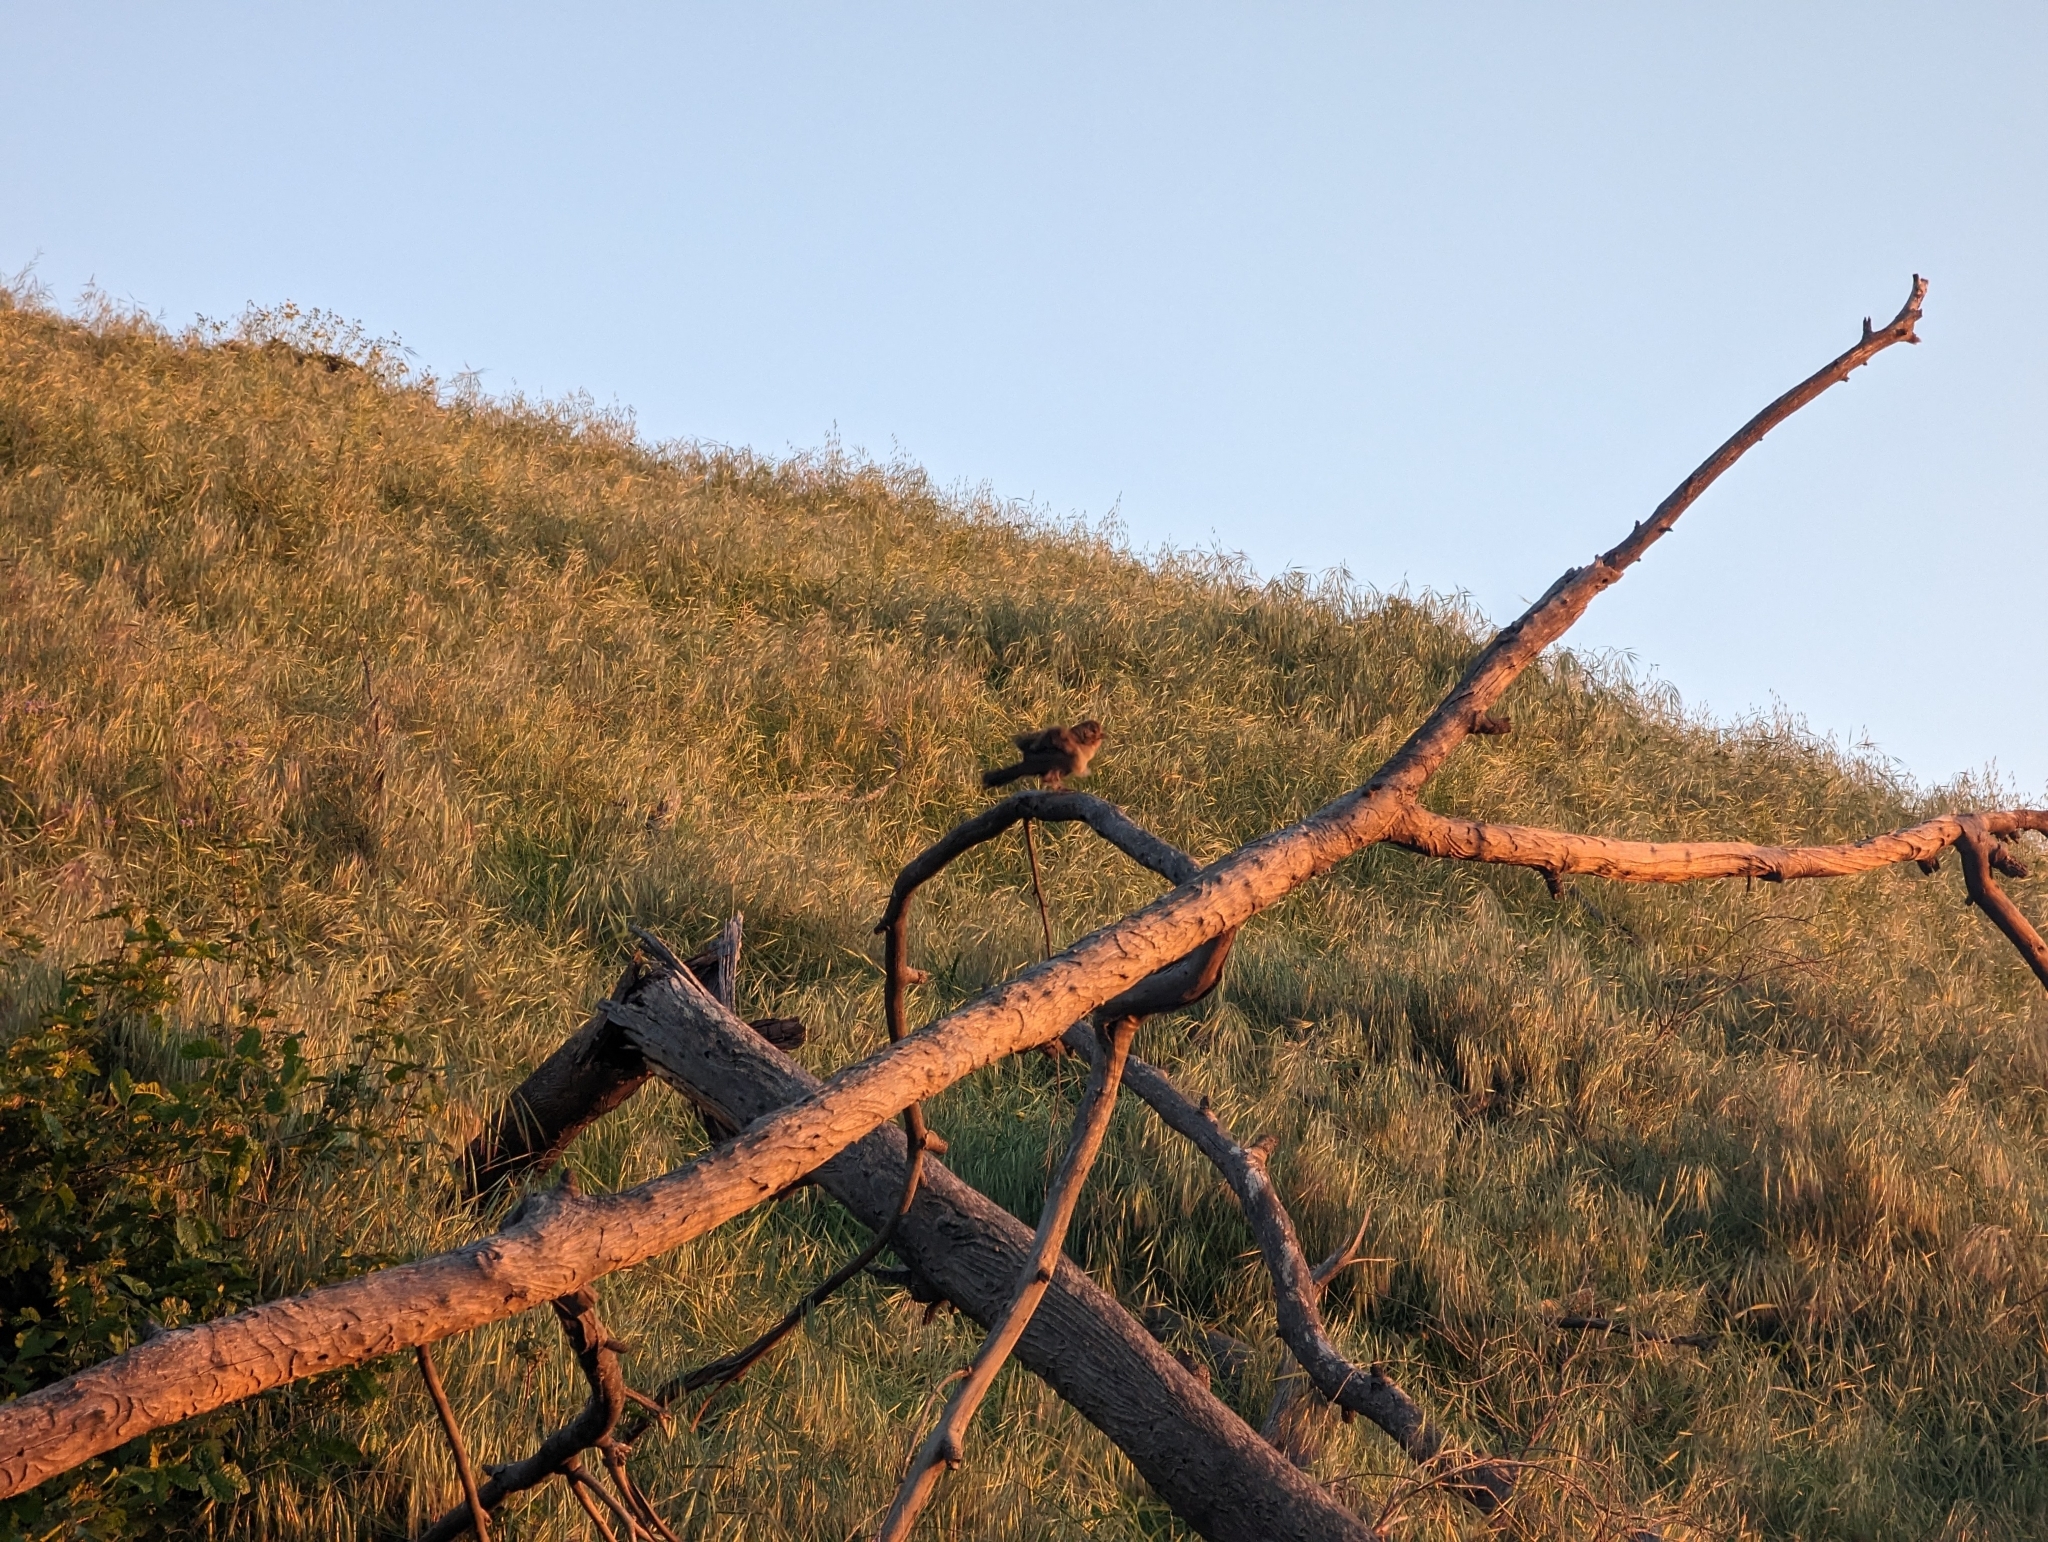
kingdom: Animalia
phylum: Chordata
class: Aves
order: Passeriformes
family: Passerellidae
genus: Melozone
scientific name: Melozone crissalis
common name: California towhee
